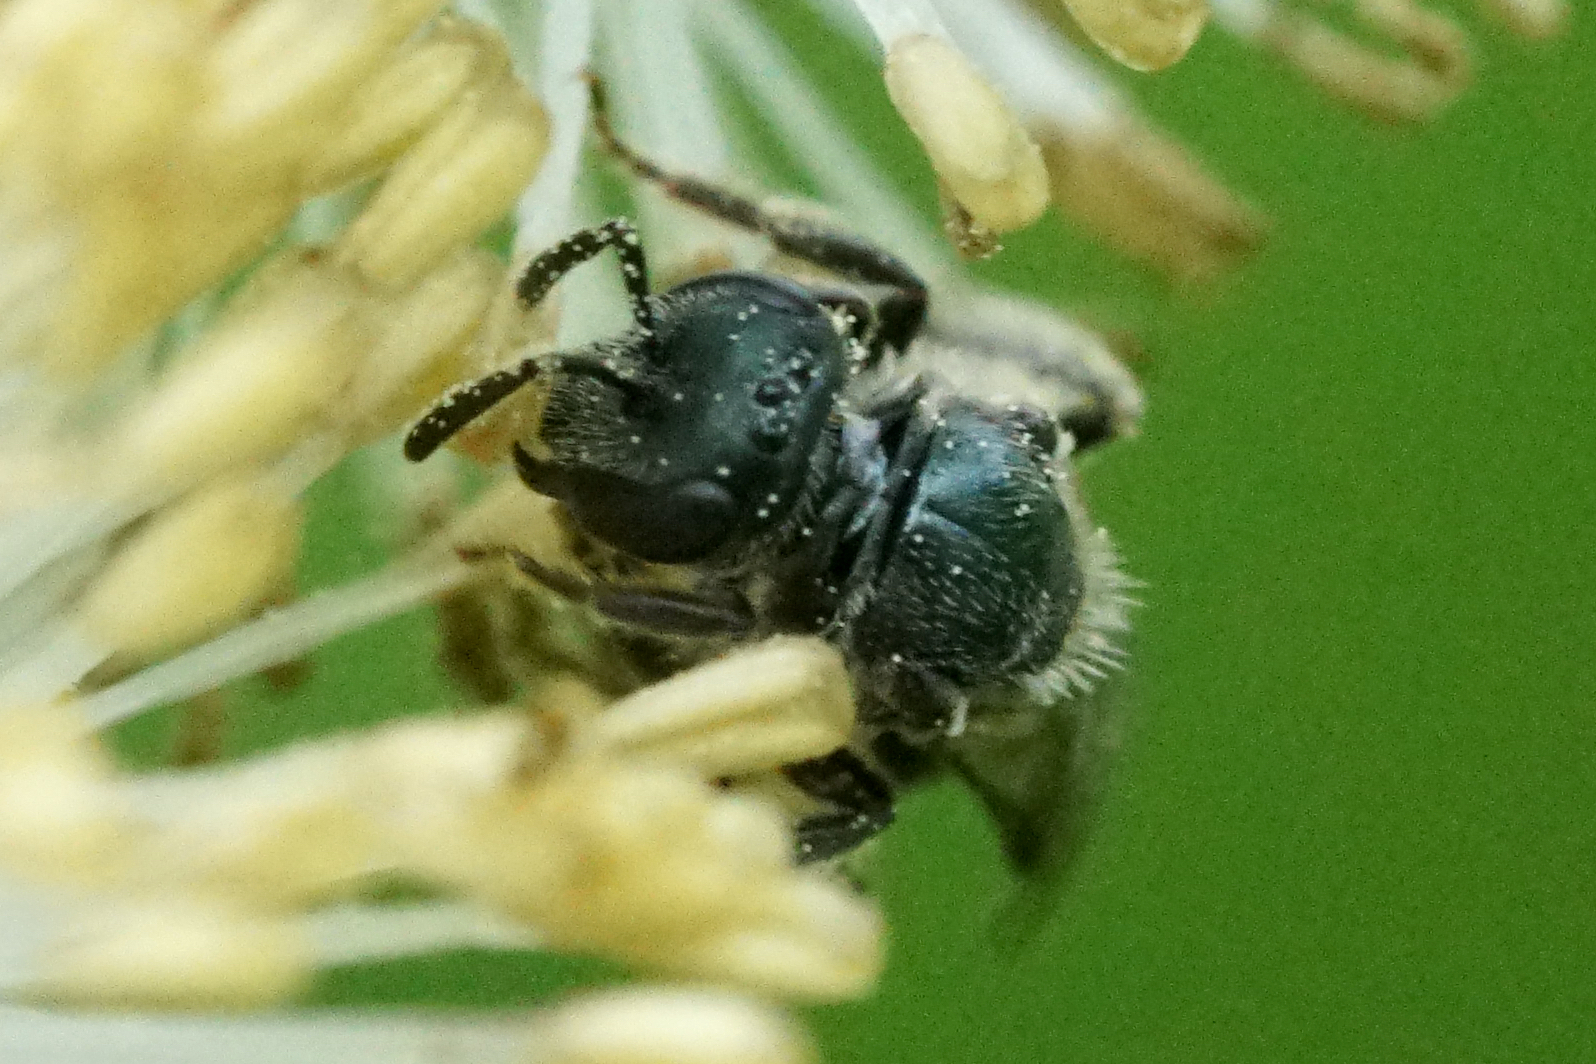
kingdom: Animalia
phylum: Arthropoda
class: Insecta
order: Hymenoptera
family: Halictidae
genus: Dialictus
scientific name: Dialictus
